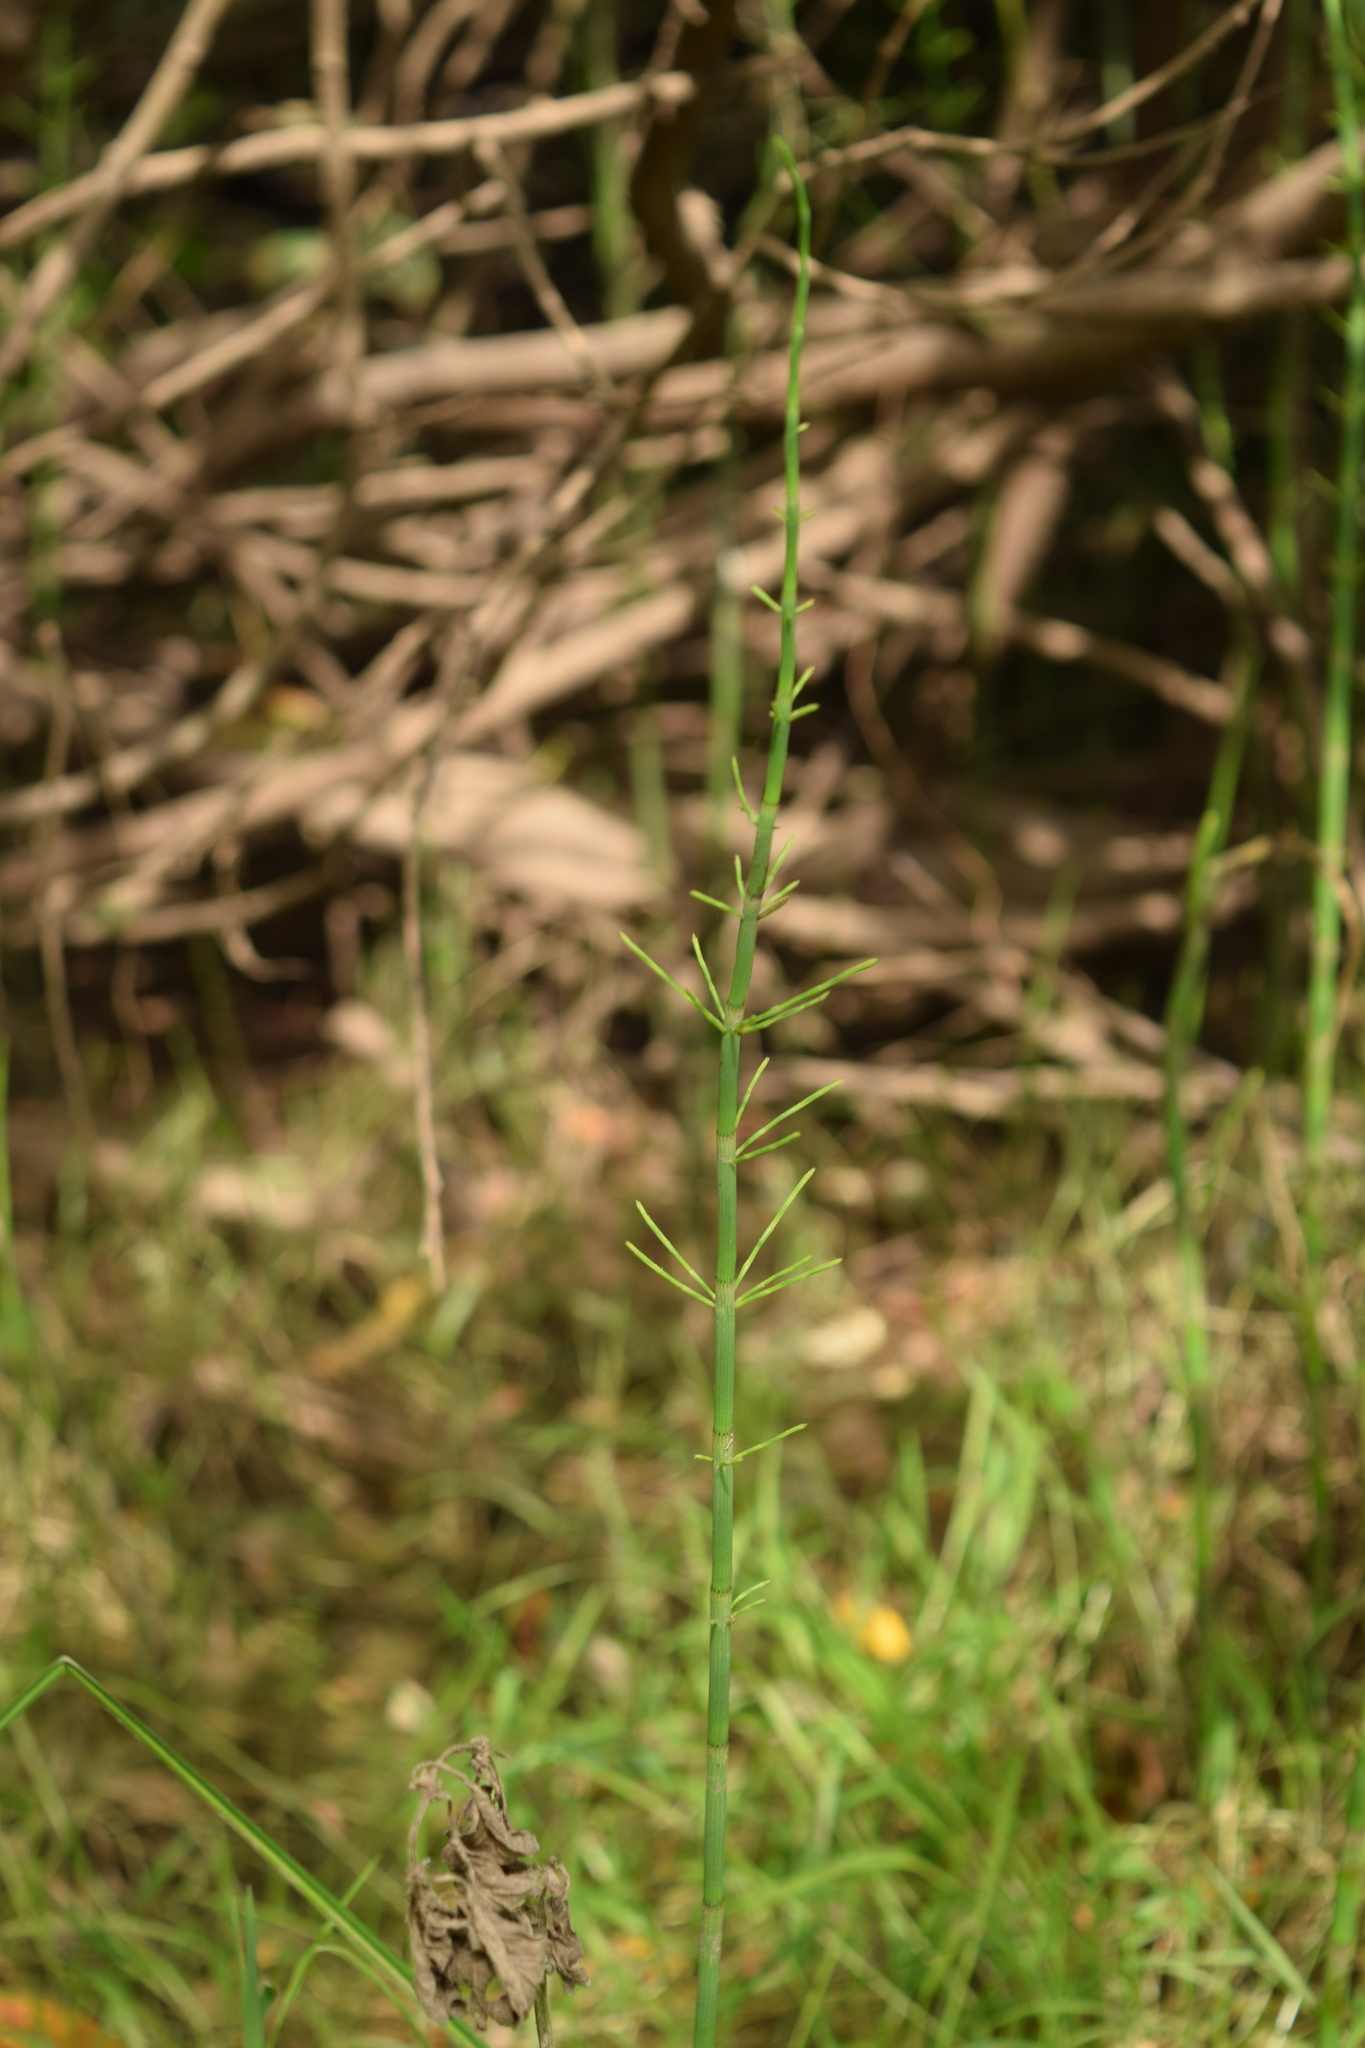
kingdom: Plantae
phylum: Tracheophyta
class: Polypodiopsida
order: Equisetales
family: Equisetaceae
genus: Equisetum
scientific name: Equisetum fluviatile
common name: Water horsetail
